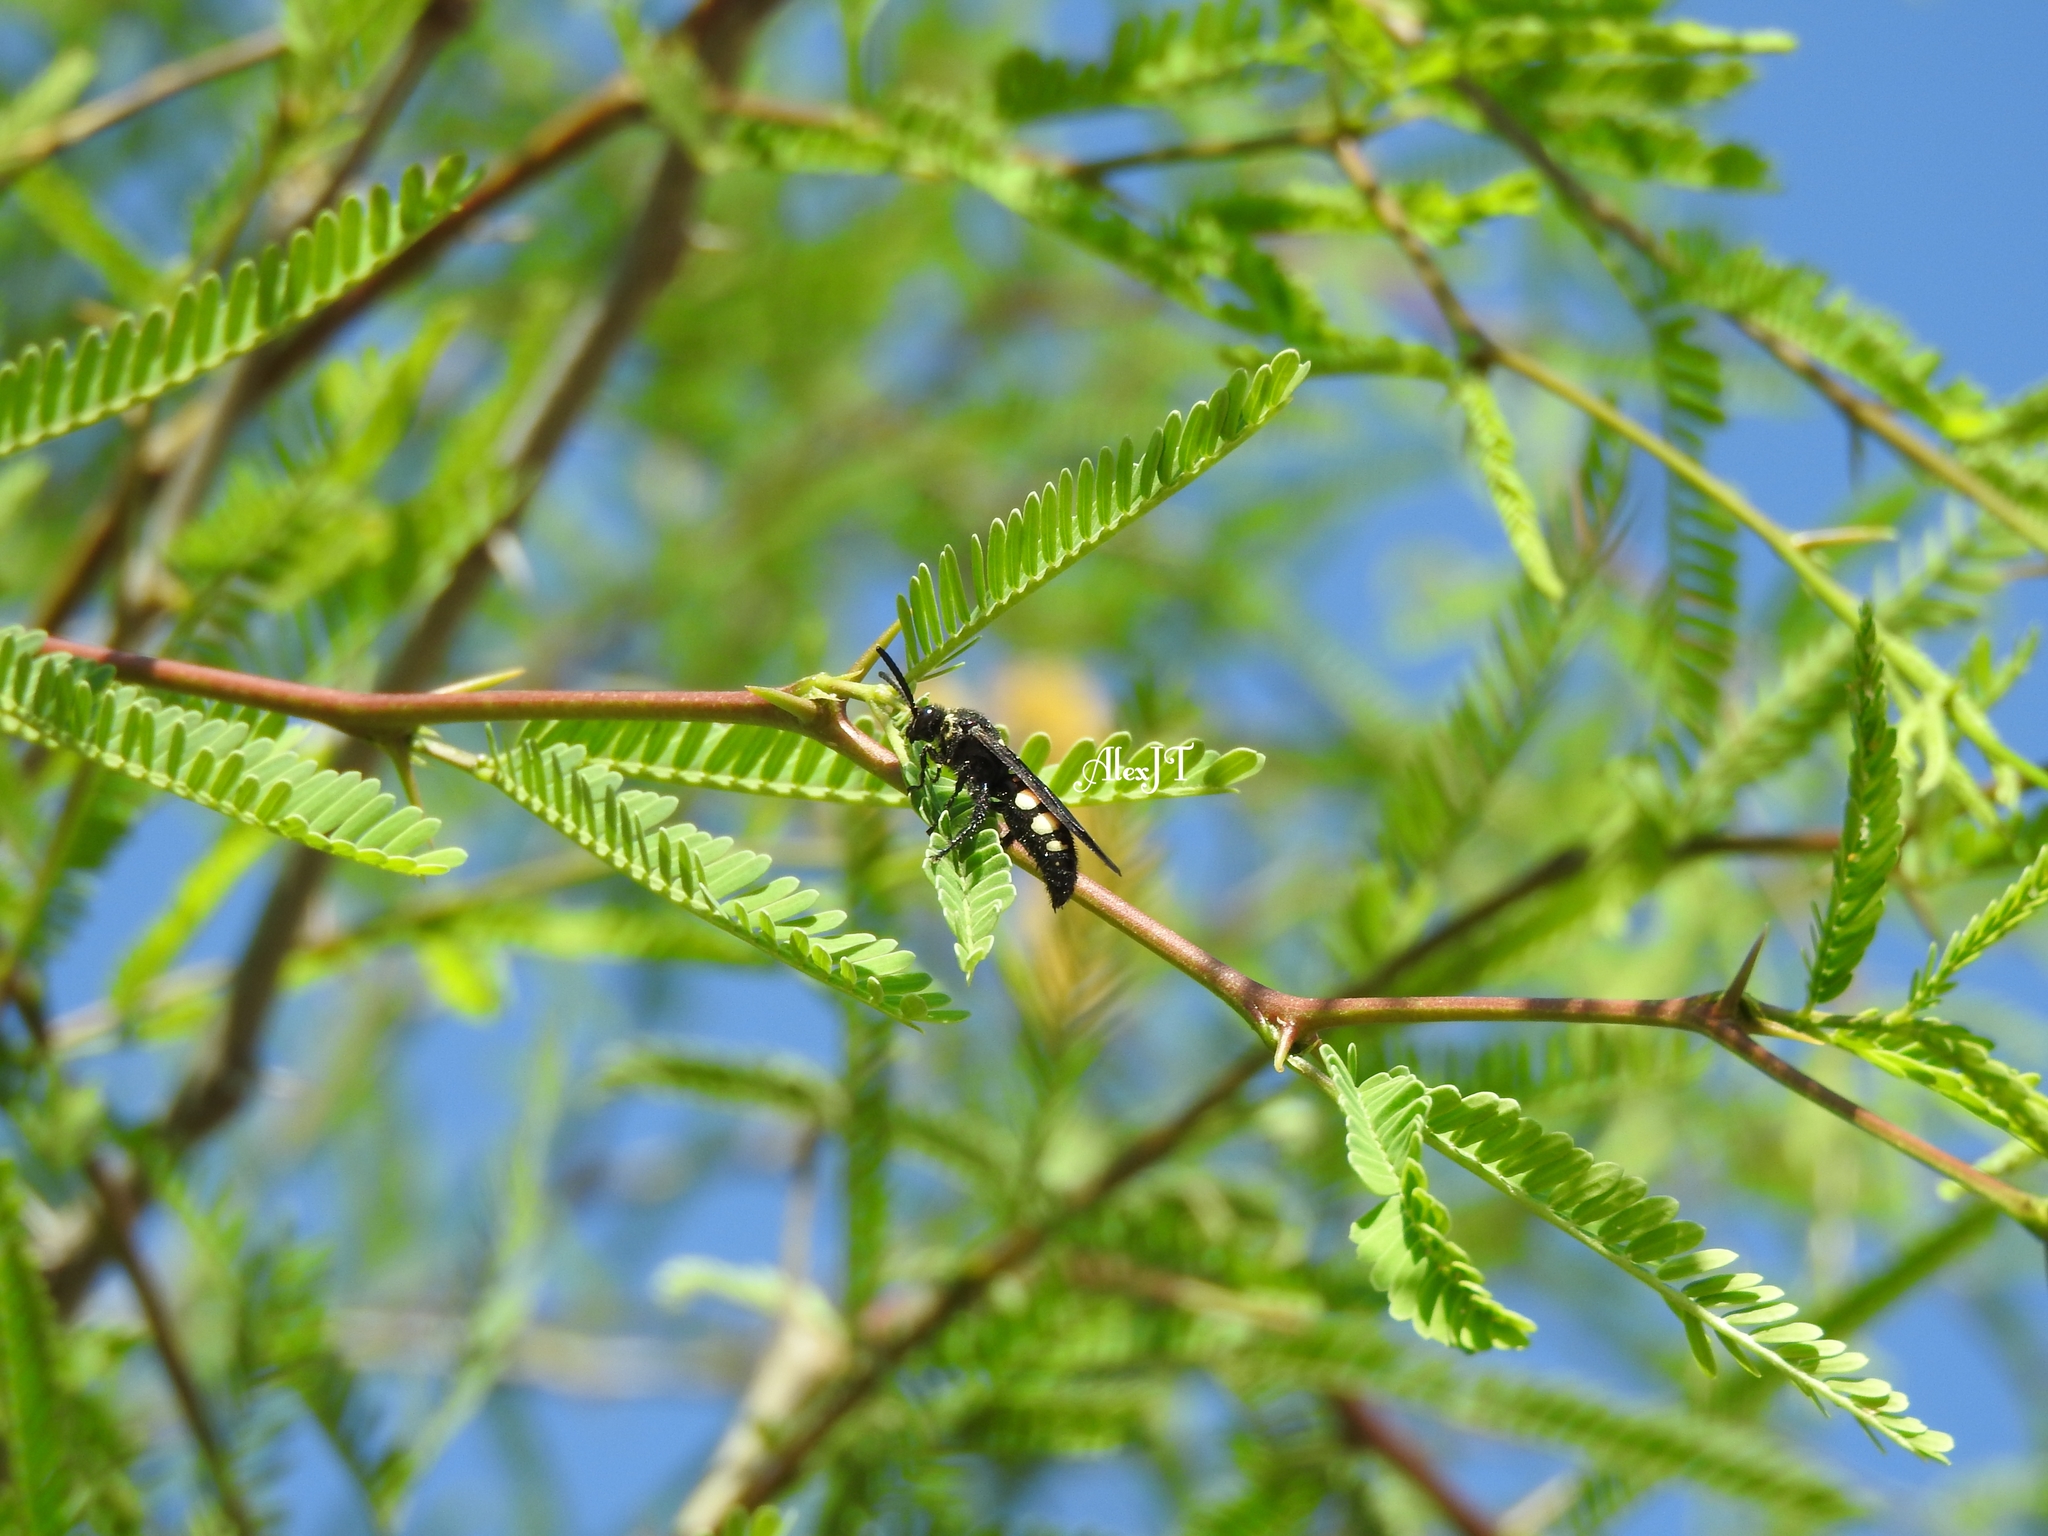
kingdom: Animalia
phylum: Arthropoda
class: Insecta
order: Hymenoptera
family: Scoliidae
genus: Scolia
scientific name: Scolia guttata
